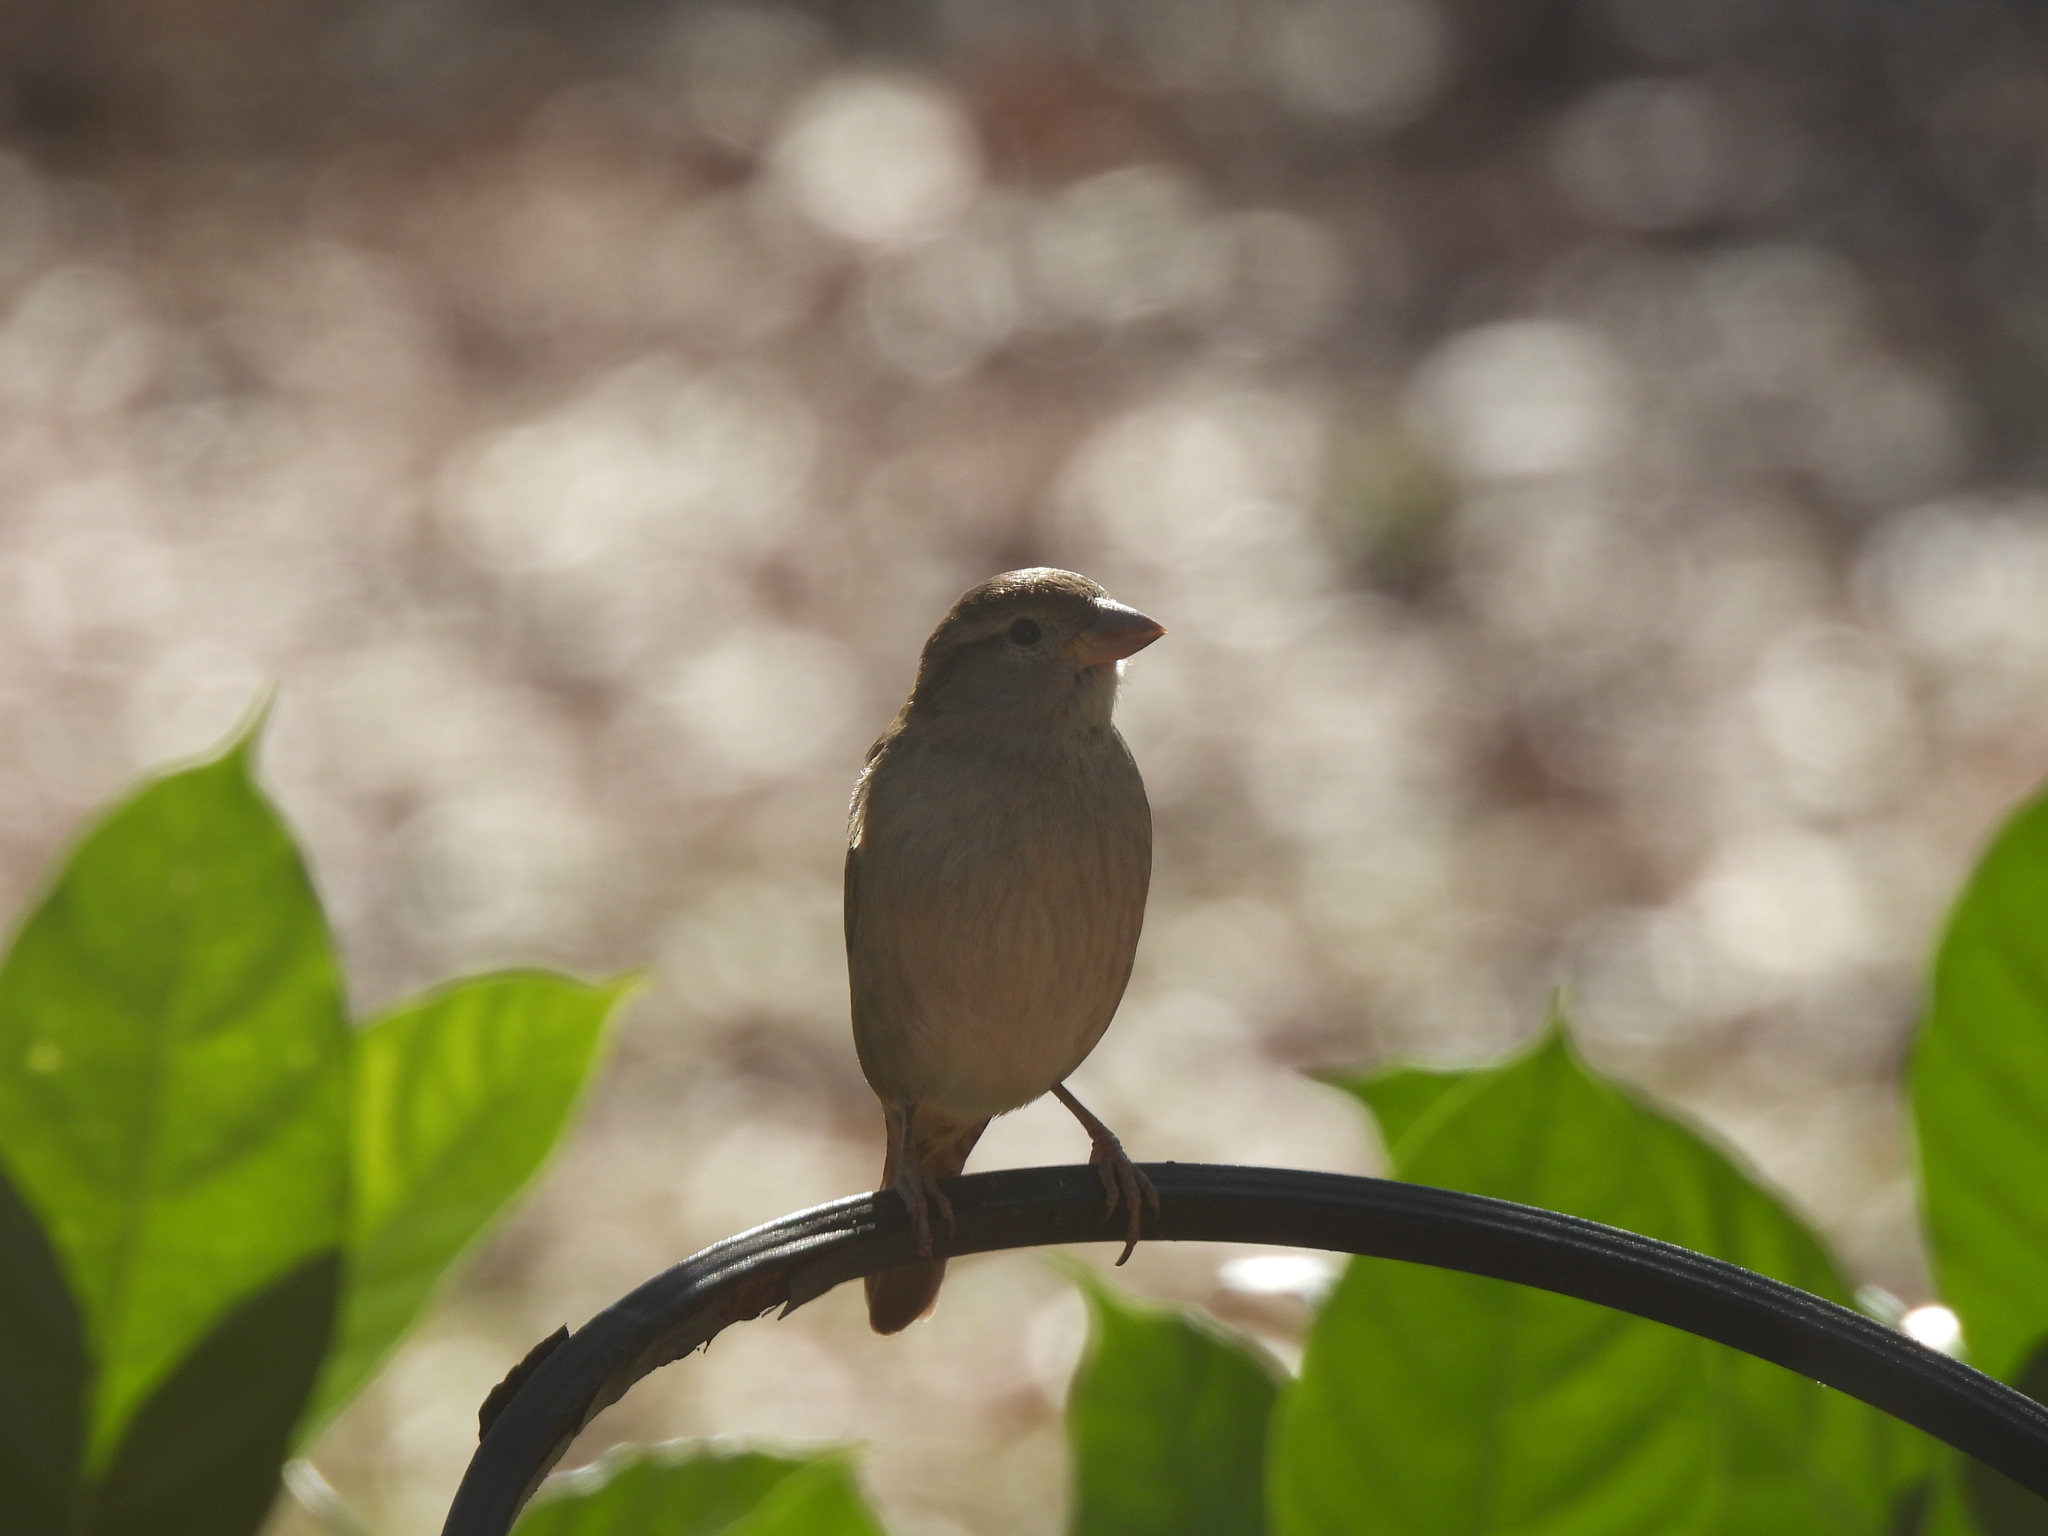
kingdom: Animalia
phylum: Chordata
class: Aves
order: Passeriformes
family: Passeridae
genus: Passer
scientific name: Passer domesticus
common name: House sparrow
